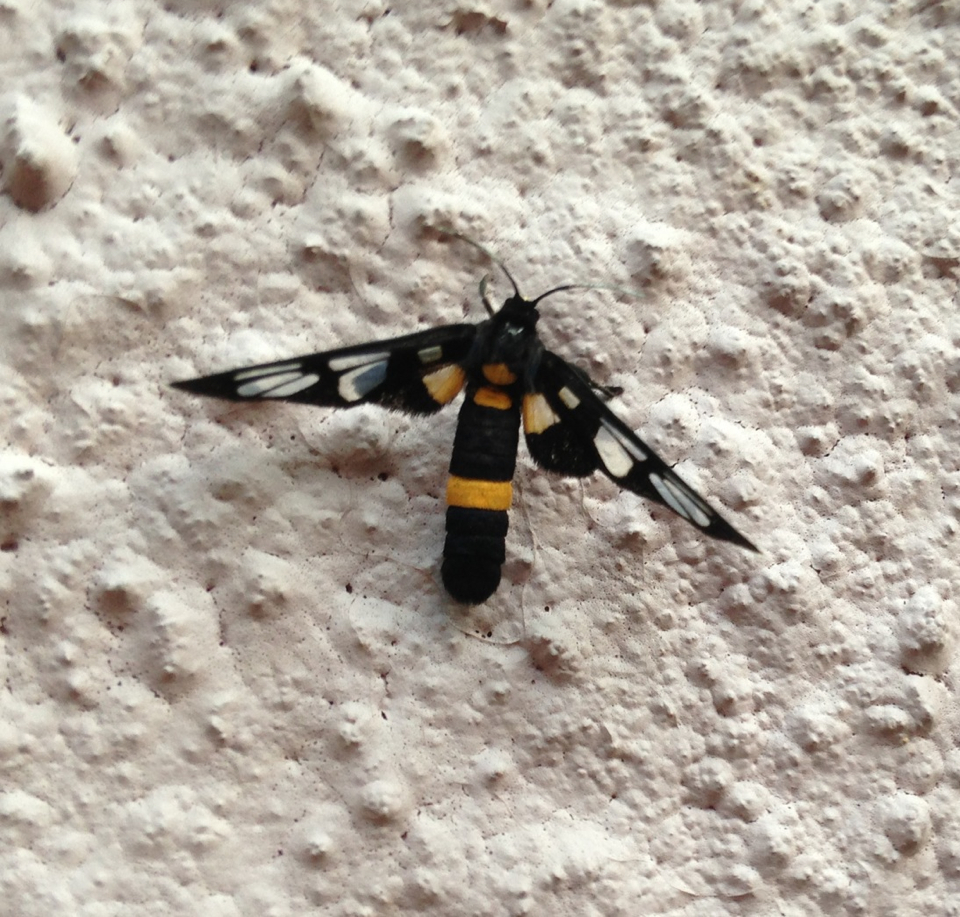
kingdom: Animalia
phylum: Arthropoda
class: Insecta
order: Lepidoptera
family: Erebidae
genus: Amata
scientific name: Amata sperbius
